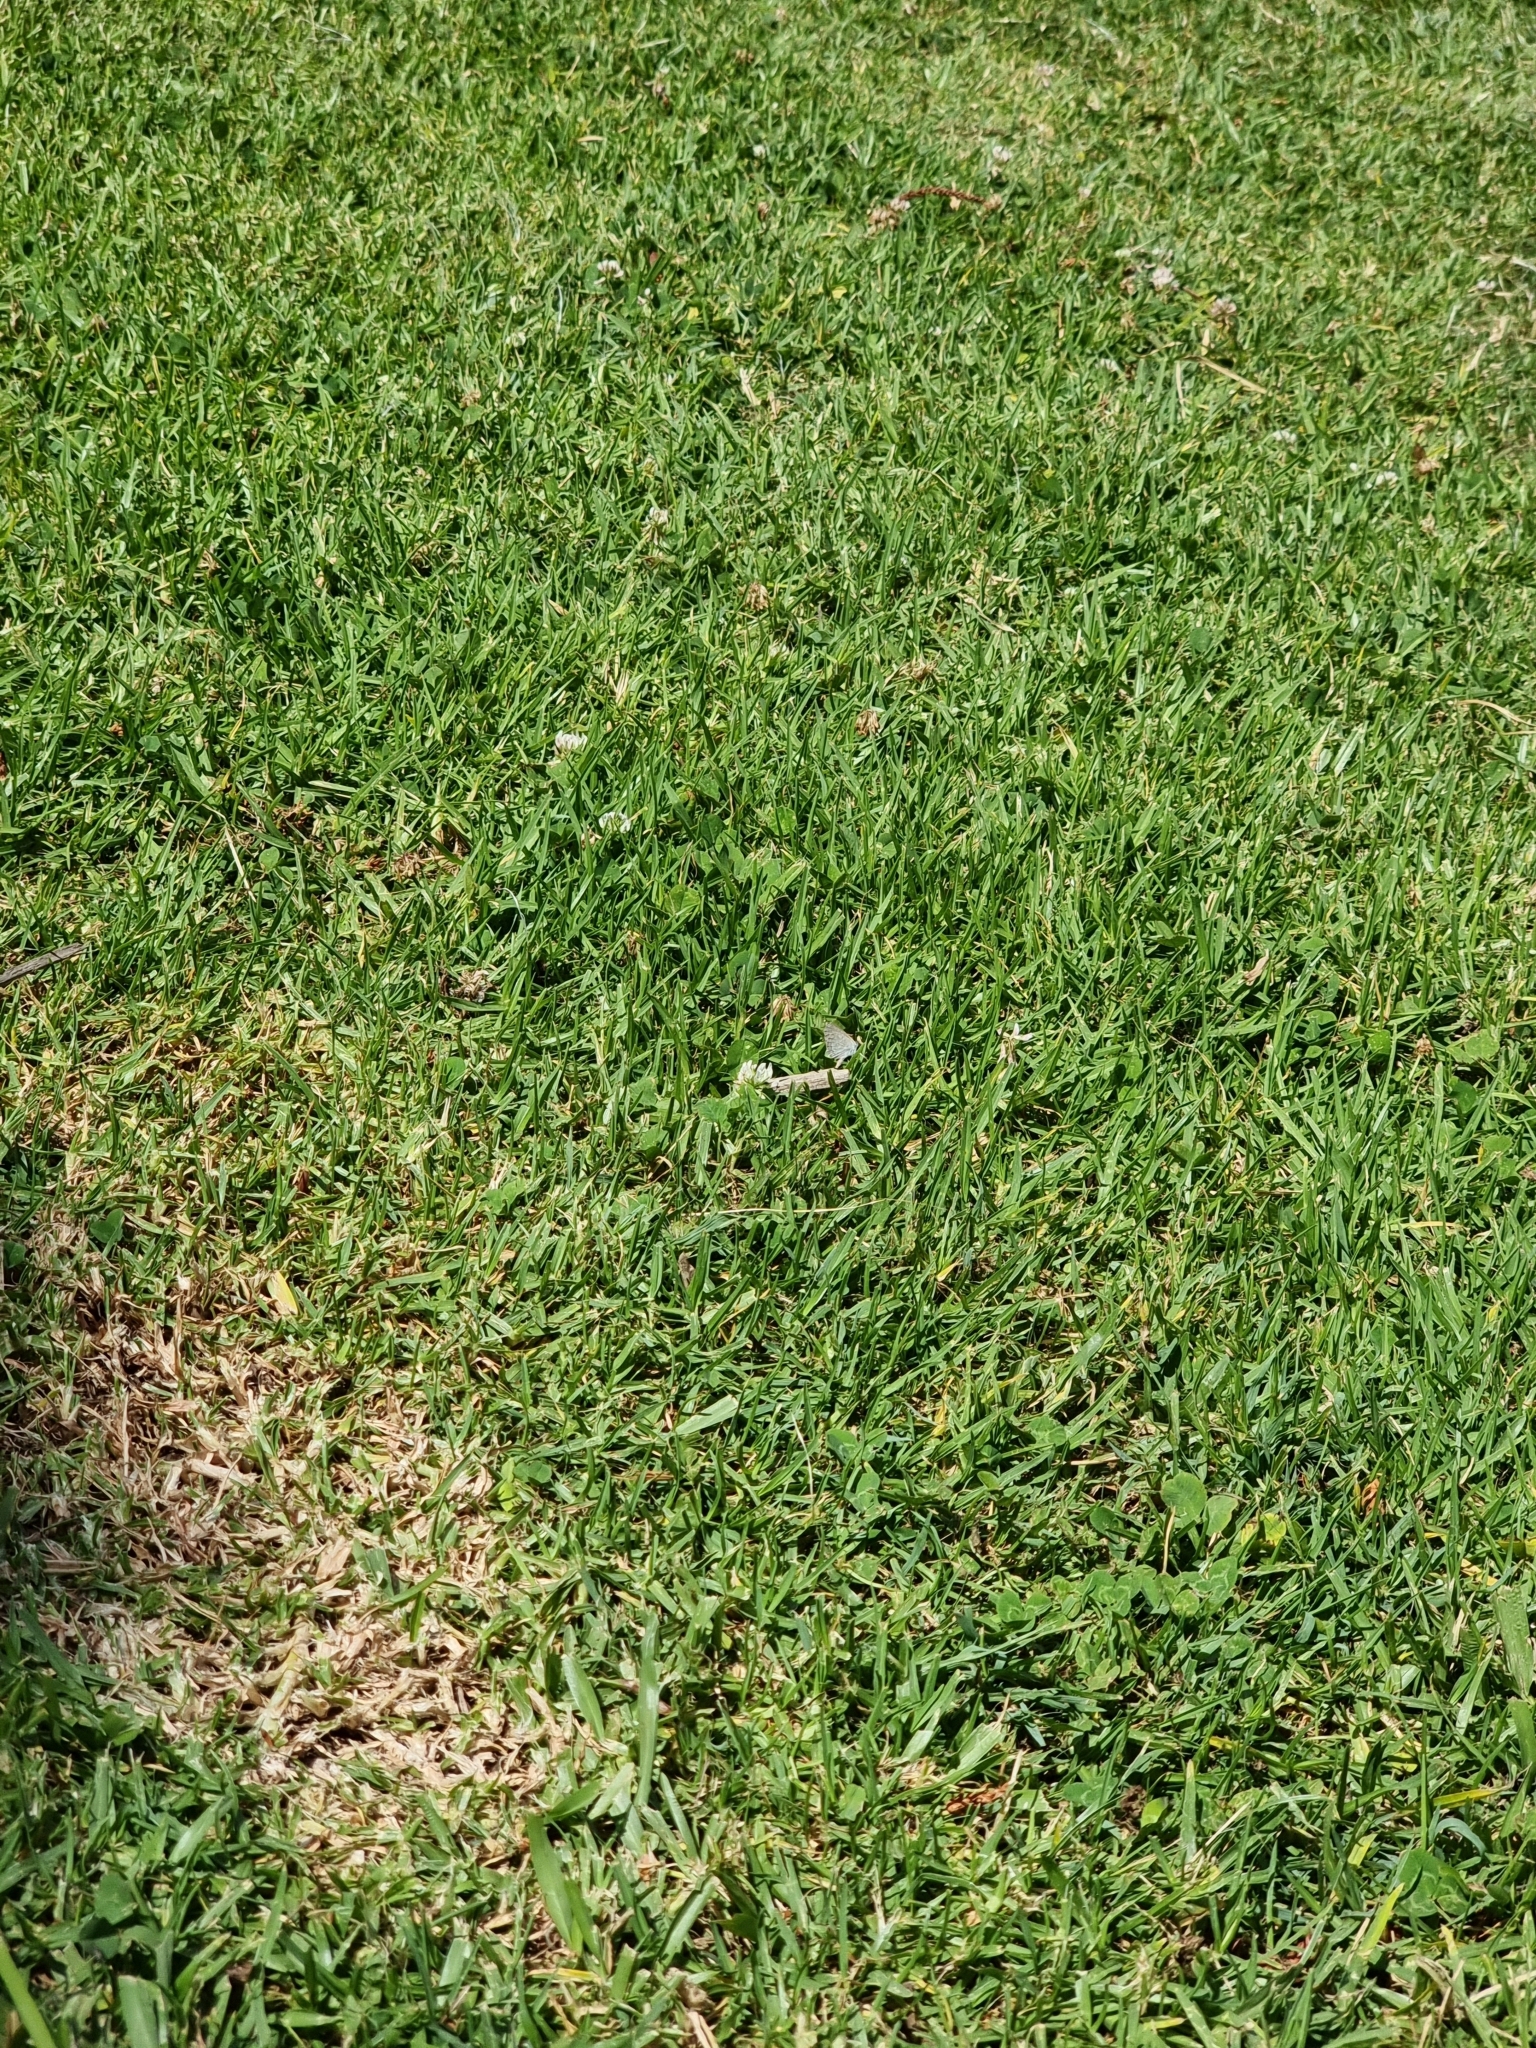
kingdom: Animalia
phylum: Arthropoda
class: Insecta
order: Lepidoptera
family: Lycaenidae
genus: Zizina
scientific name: Zizina otis
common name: Lesser grass blue
